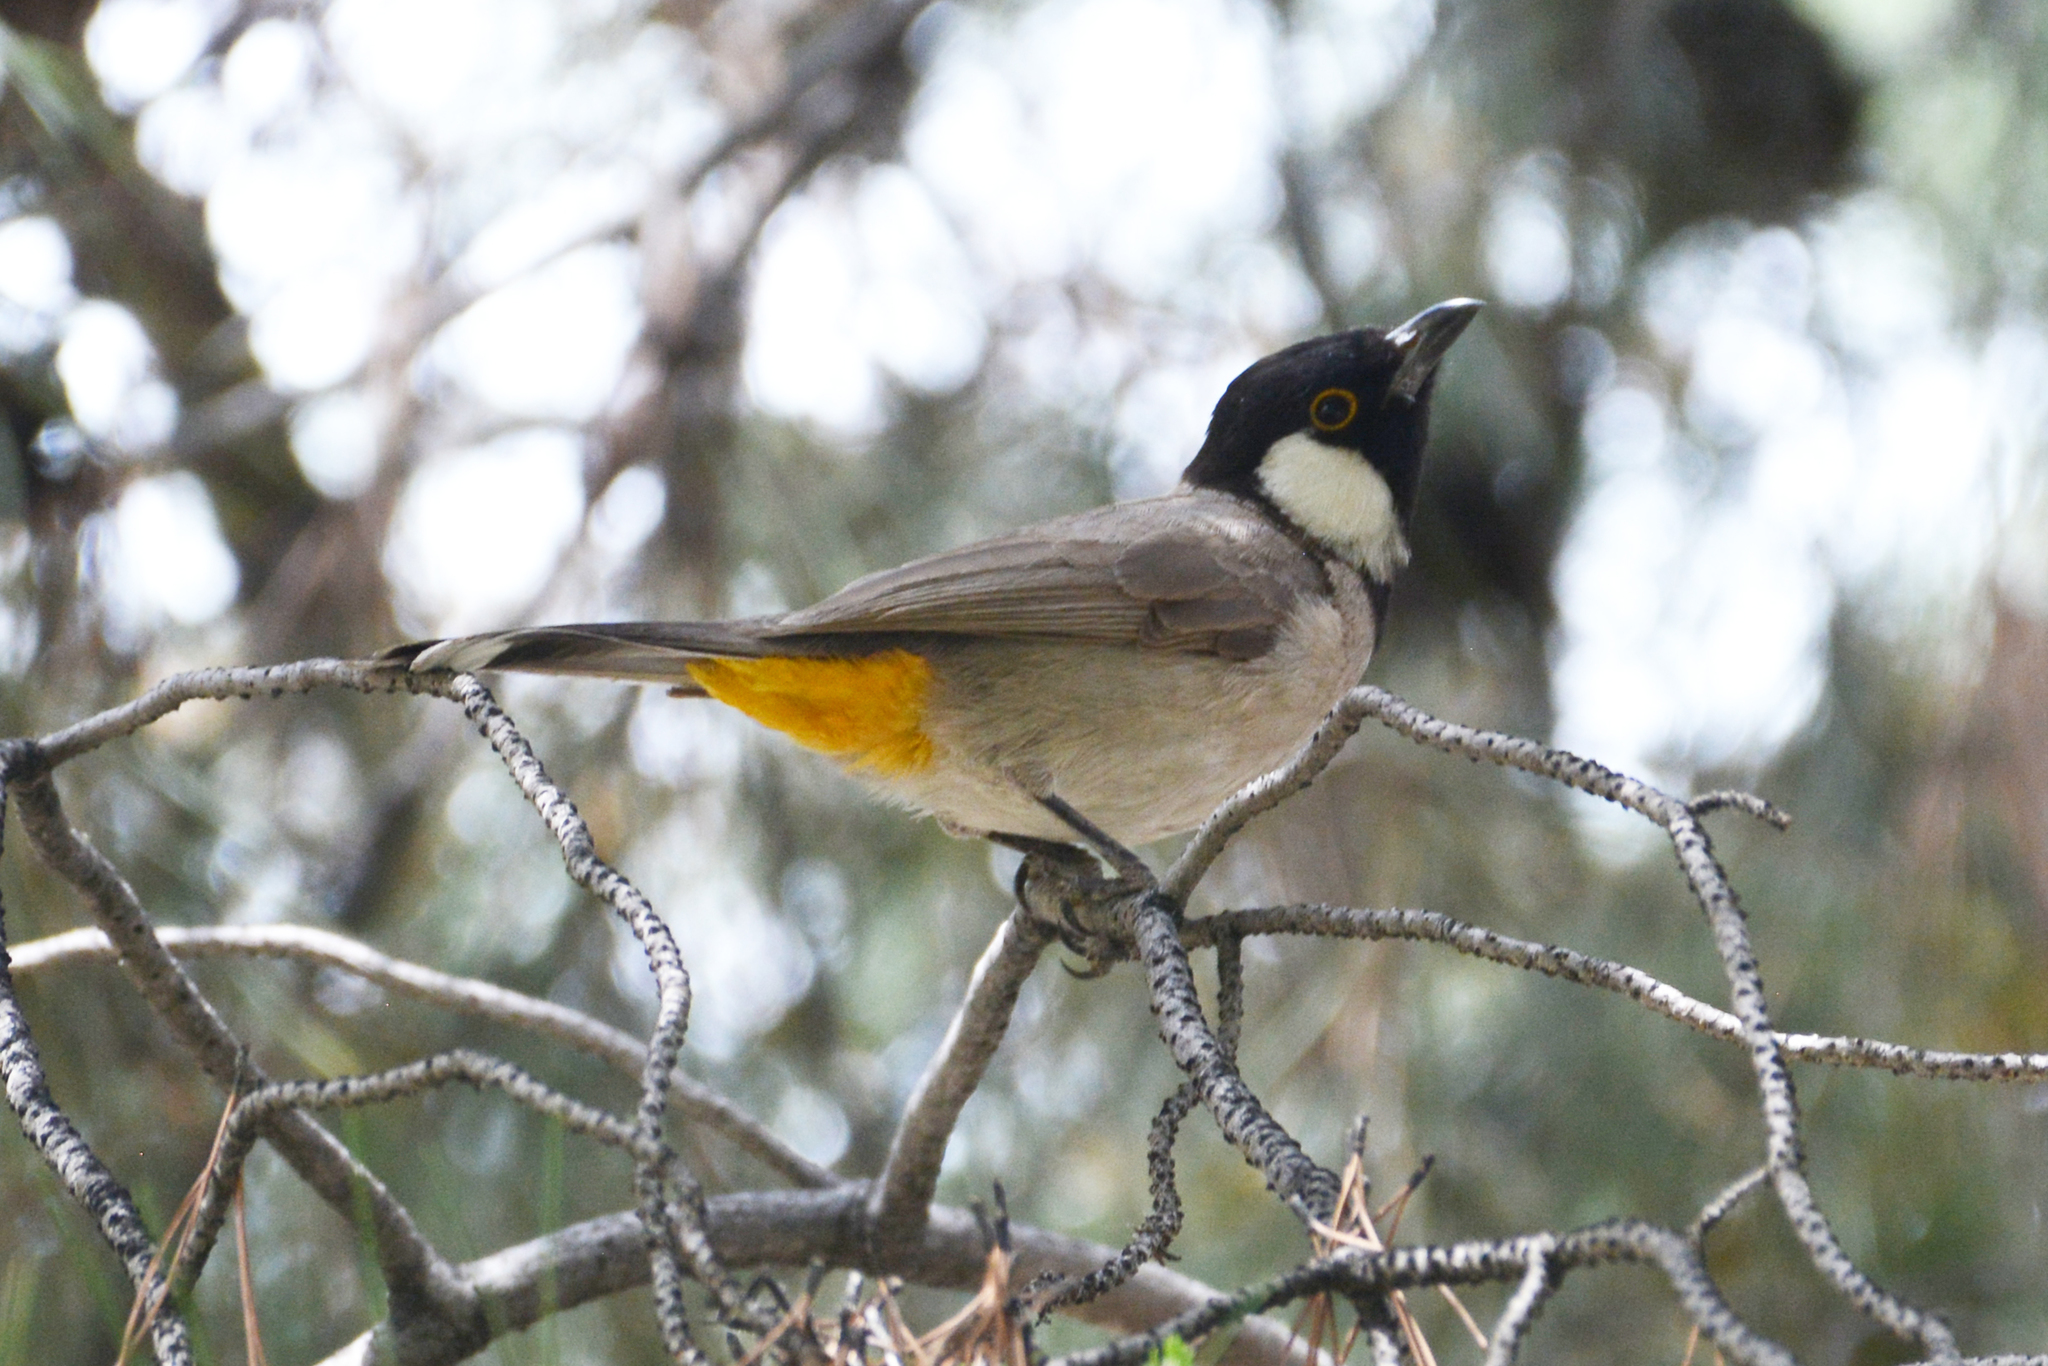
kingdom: Animalia
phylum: Chordata
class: Aves
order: Passeriformes
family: Pycnonotidae
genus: Pycnonotus
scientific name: Pycnonotus leucotis
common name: White-eared bulbul
